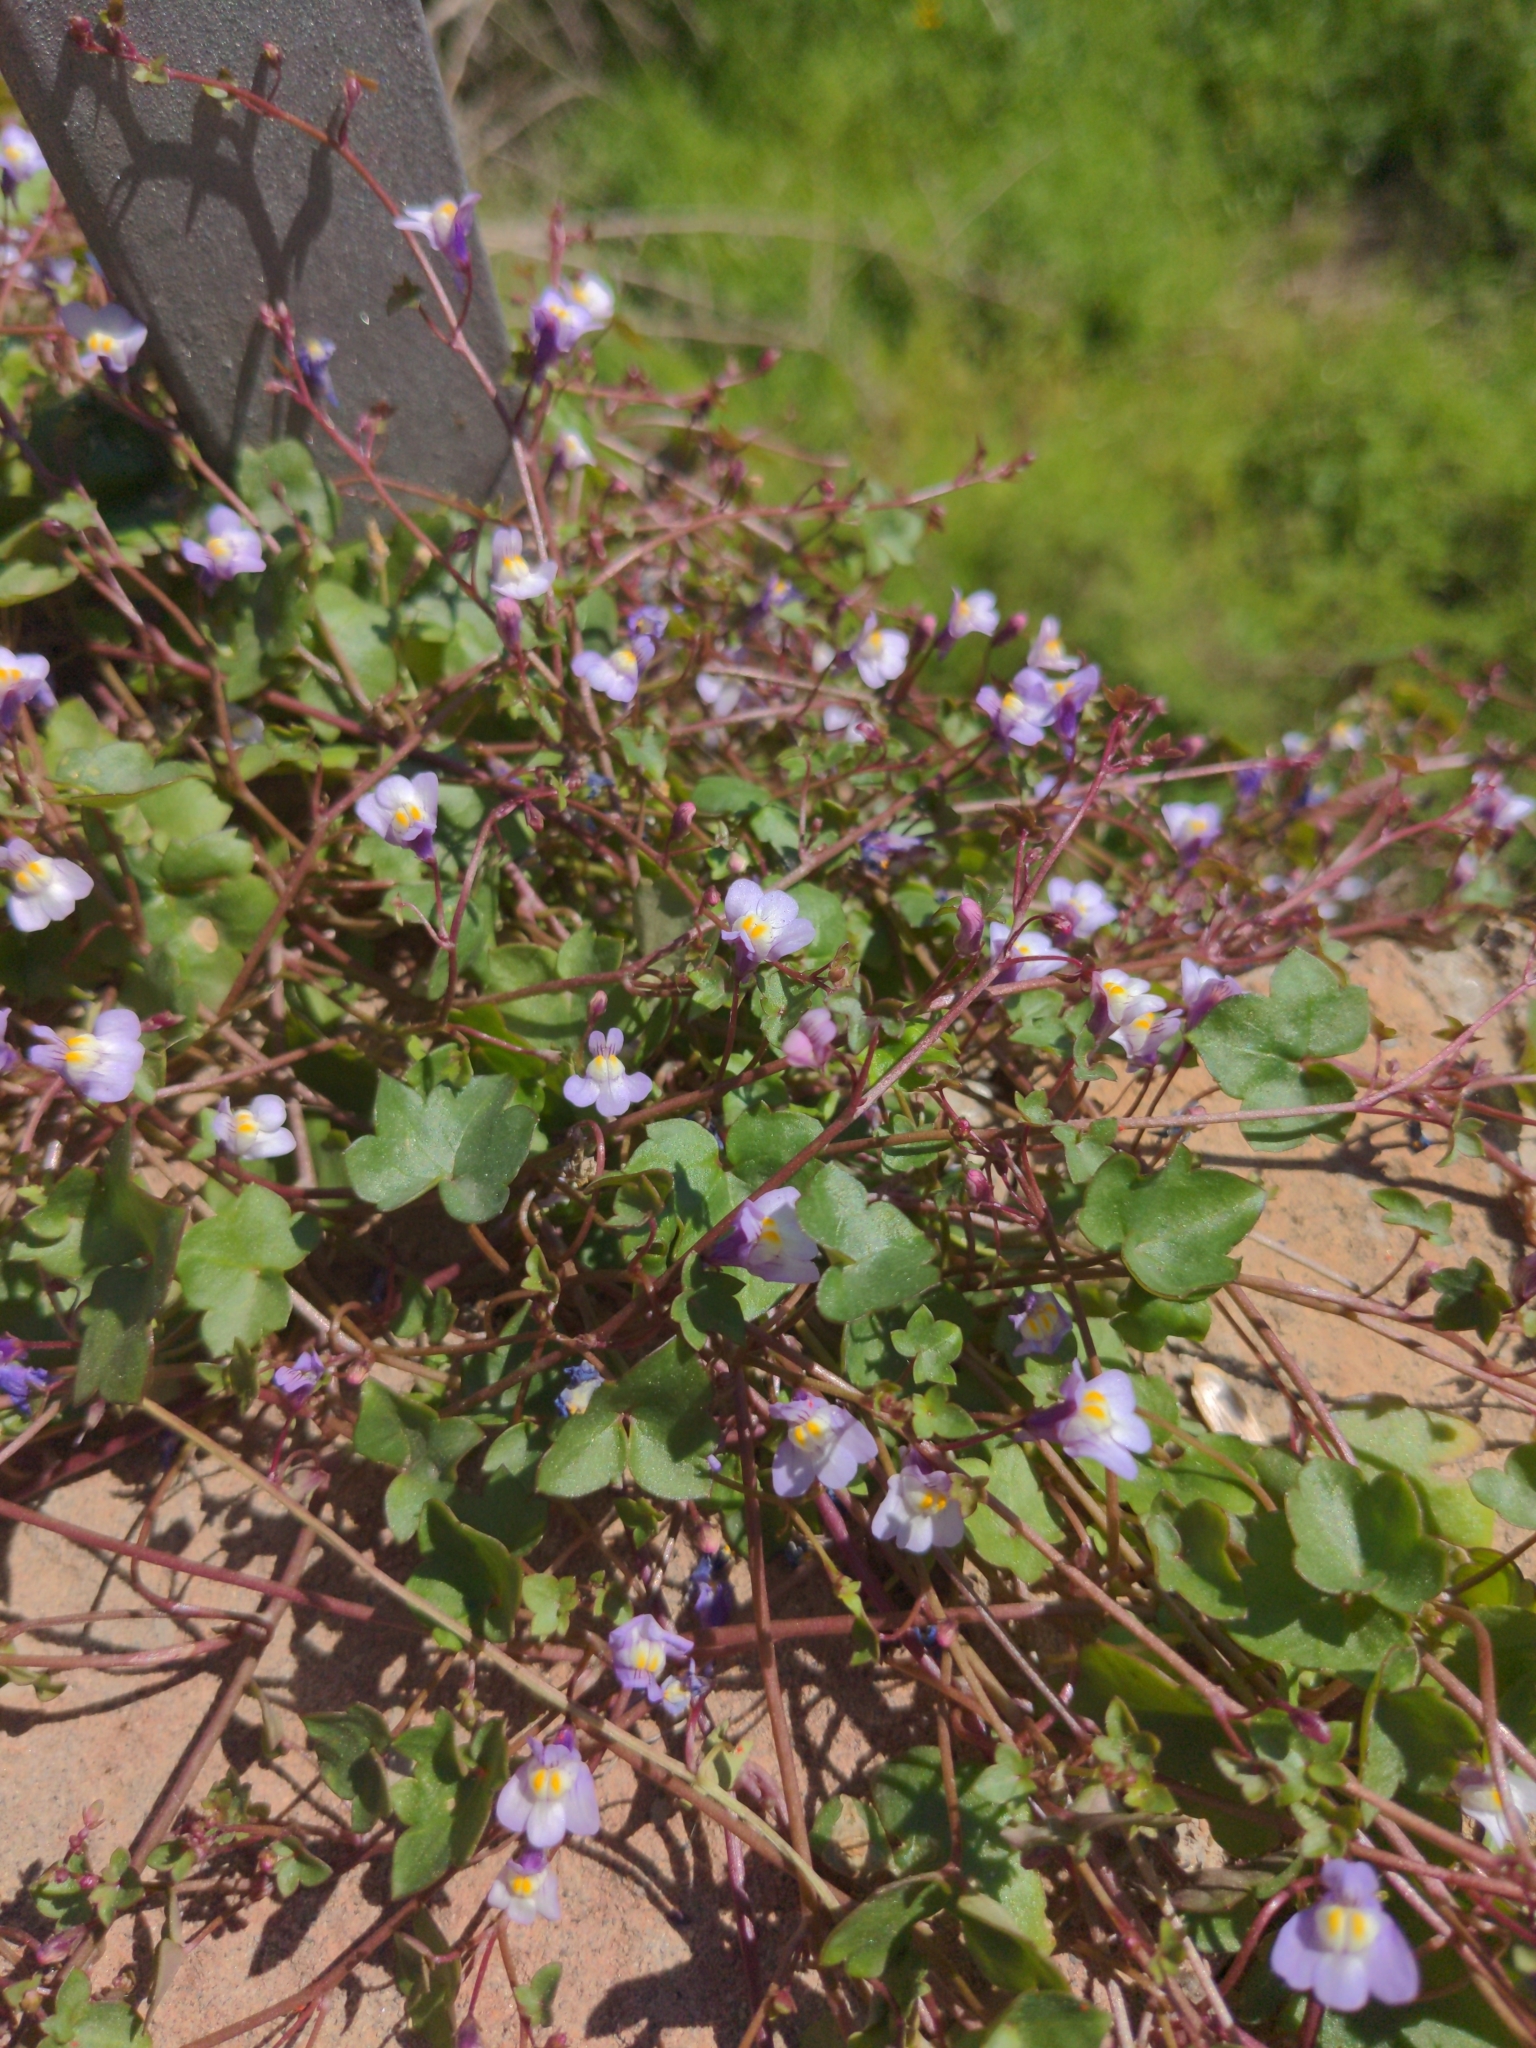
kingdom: Plantae
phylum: Tracheophyta
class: Magnoliopsida
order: Lamiales
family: Plantaginaceae
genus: Cymbalaria
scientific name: Cymbalaria muralis
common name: Ivy-leaved toadflax
